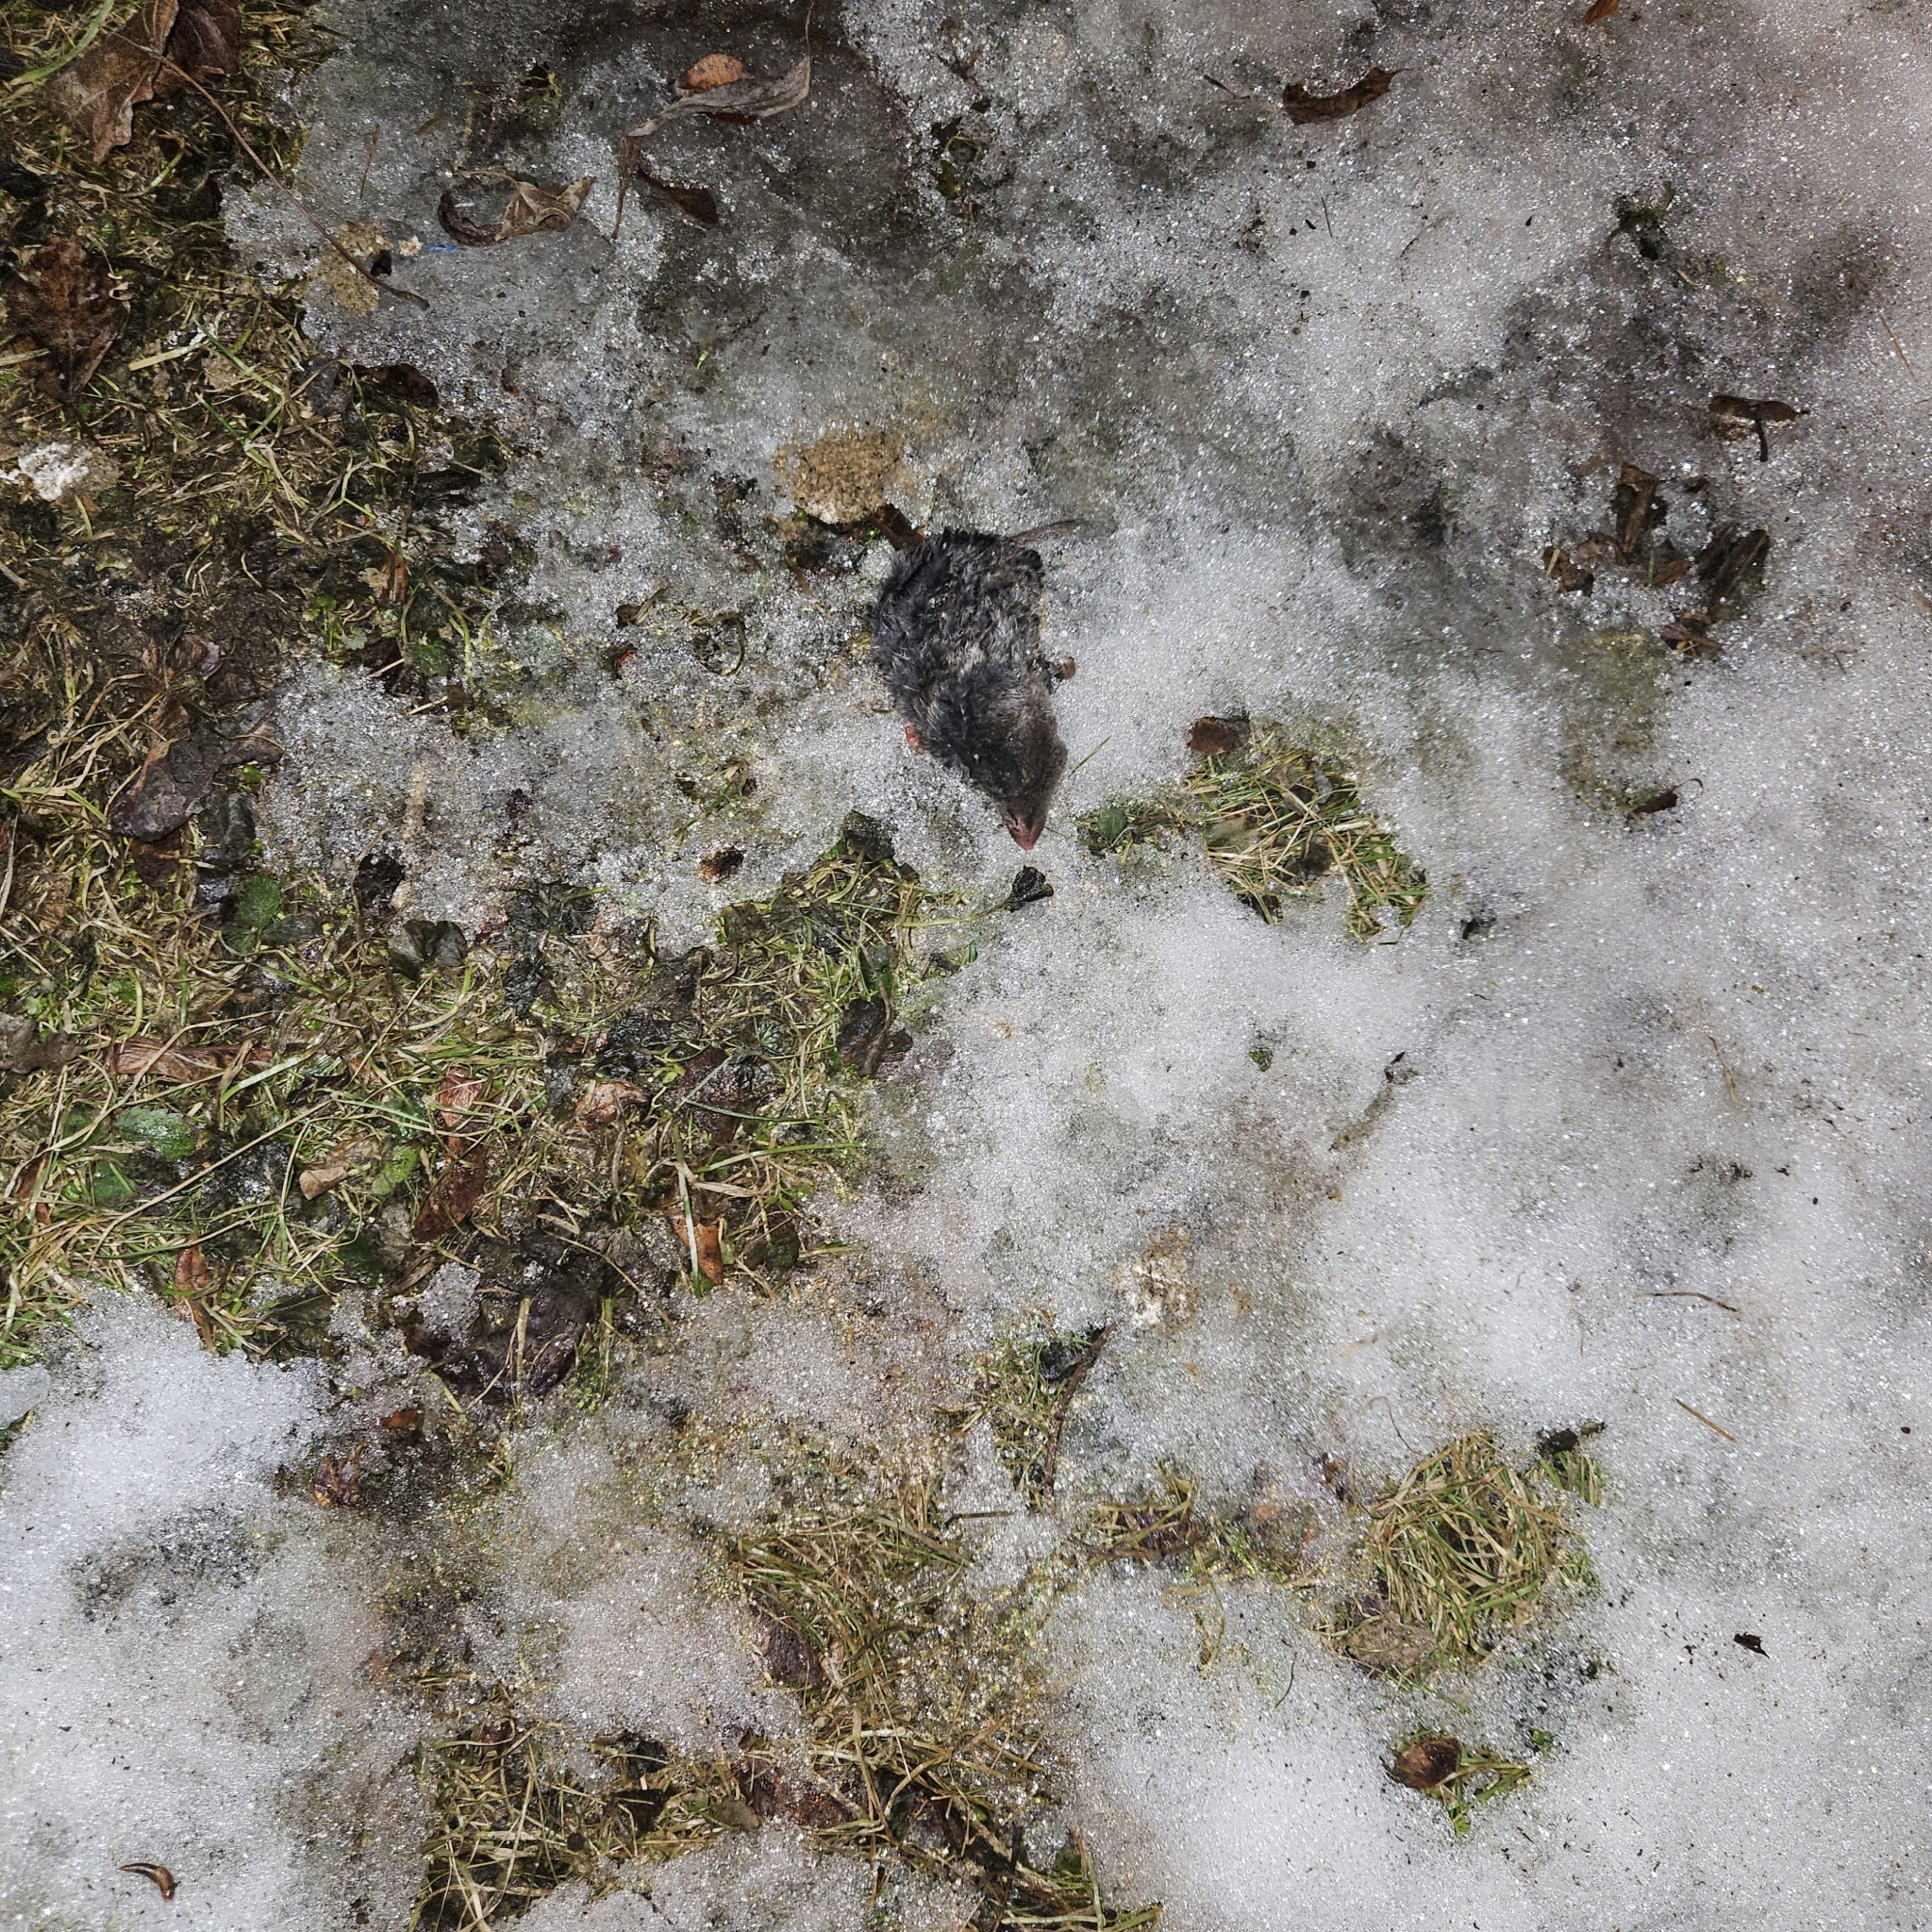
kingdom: Animalia
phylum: Chordata
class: Mammalia
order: Soricomorpha
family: Soricidae
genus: Blarina
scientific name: Blarina brevicauda
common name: Northern short-tailed shrew
